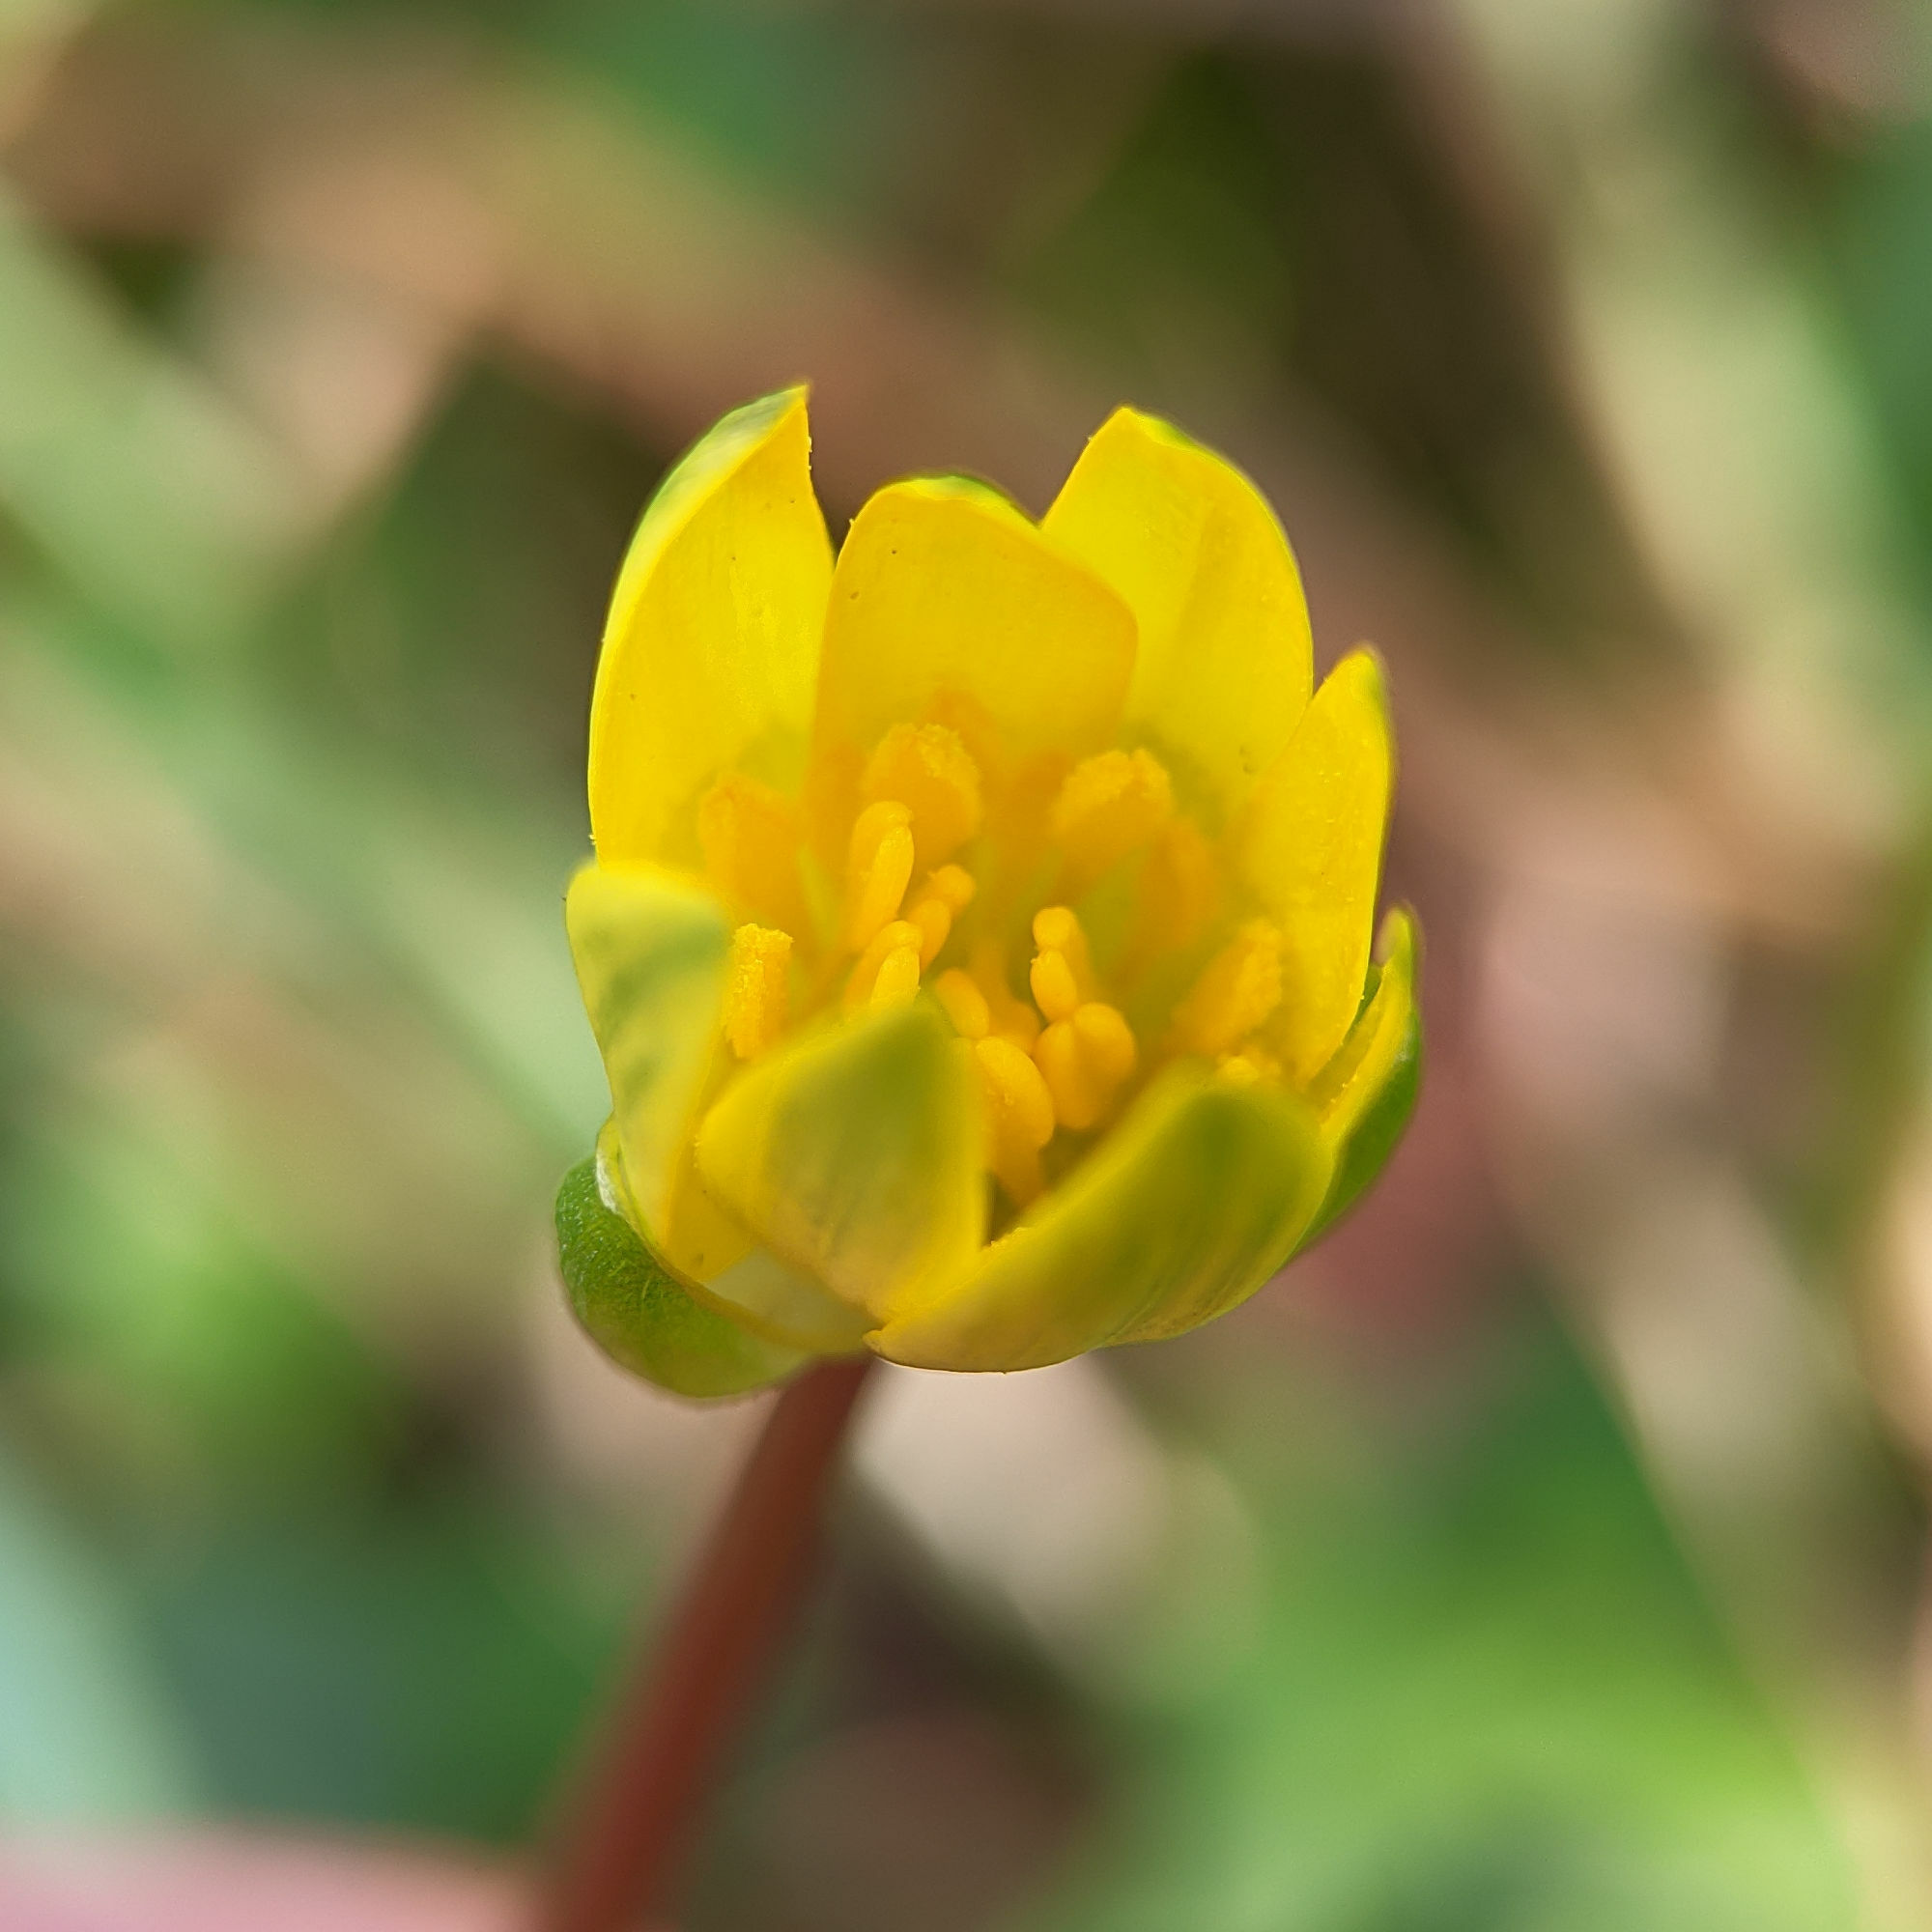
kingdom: Plantae
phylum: Tracheophyta
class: Magnoliopsida
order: Ranunculales
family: Ranunculaceae
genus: Ficaria
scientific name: Ficaria verna
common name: Lesser celandine
